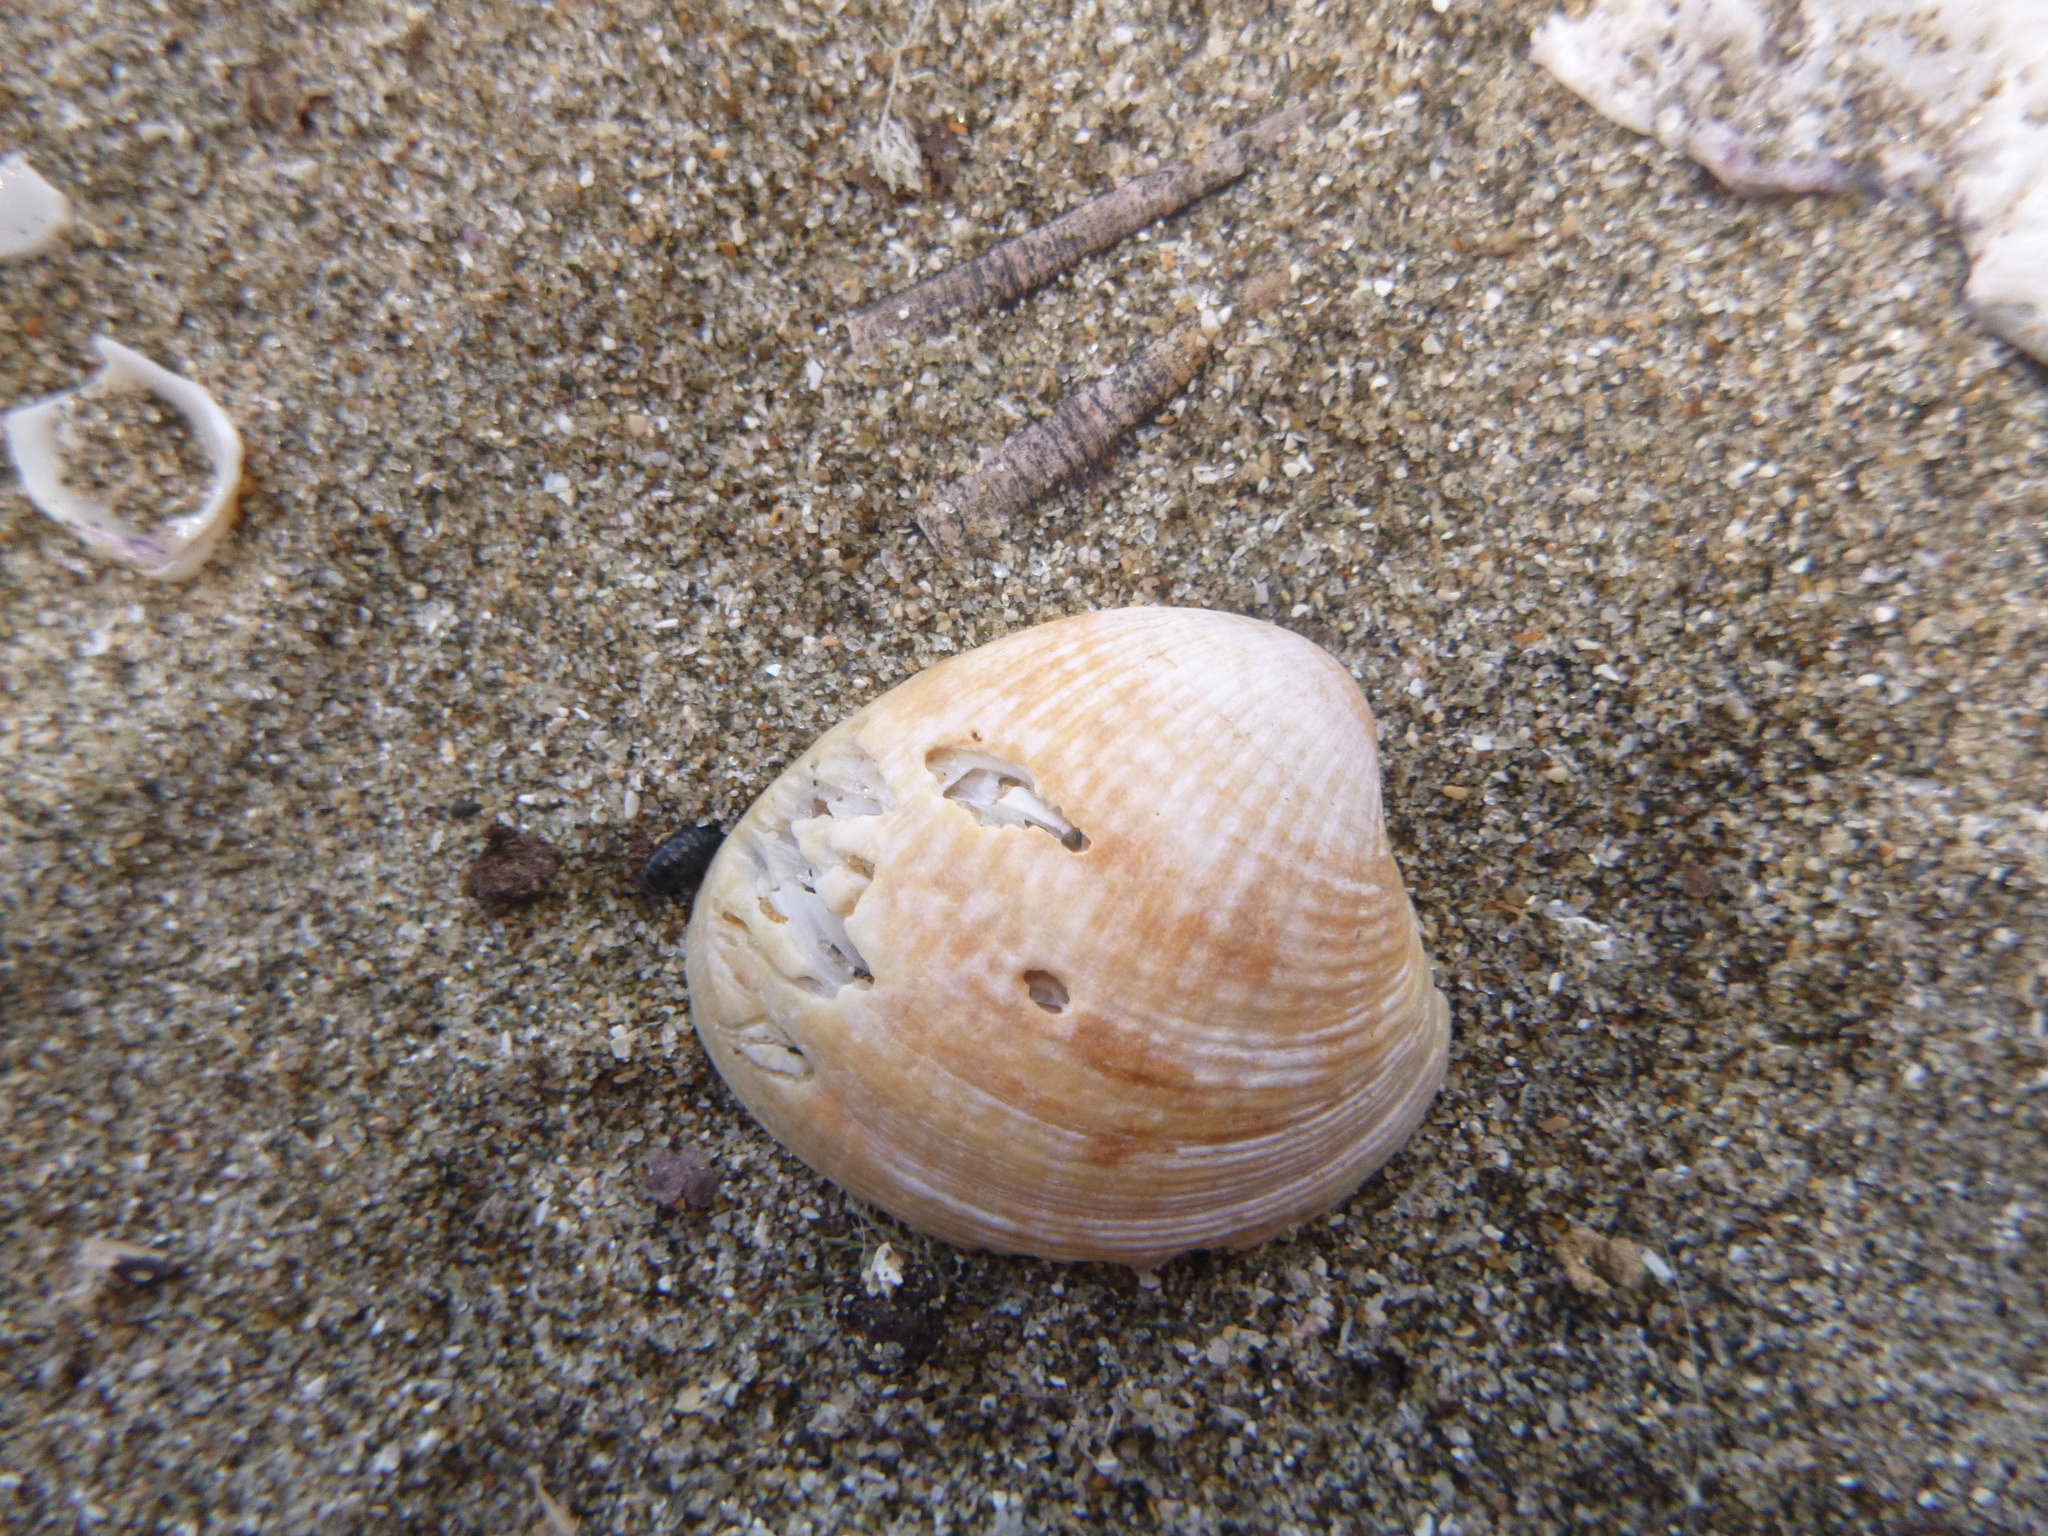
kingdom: Animalia
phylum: Mollusca
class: Bivalvia
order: Venerida
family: Veneridae
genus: Austrovenus
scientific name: Austrovenus stutchburyi
